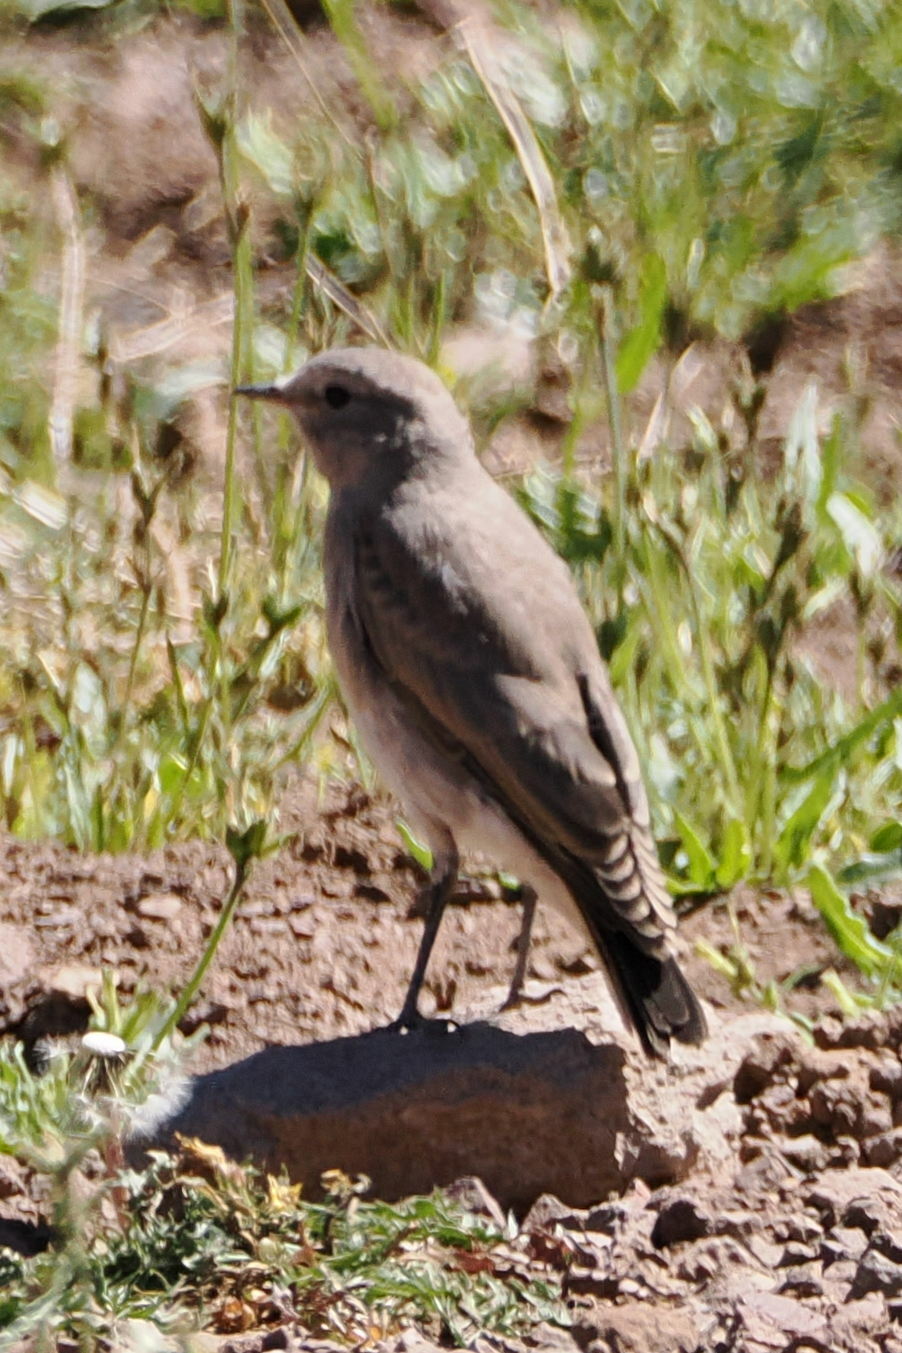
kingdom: Animalia
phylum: Chordata
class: Aves
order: Passeriformes
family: Tyrannidae
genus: Muscisaxicola
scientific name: Muscisaxicola flavinucha
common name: Ochre-naped ground tyrant
